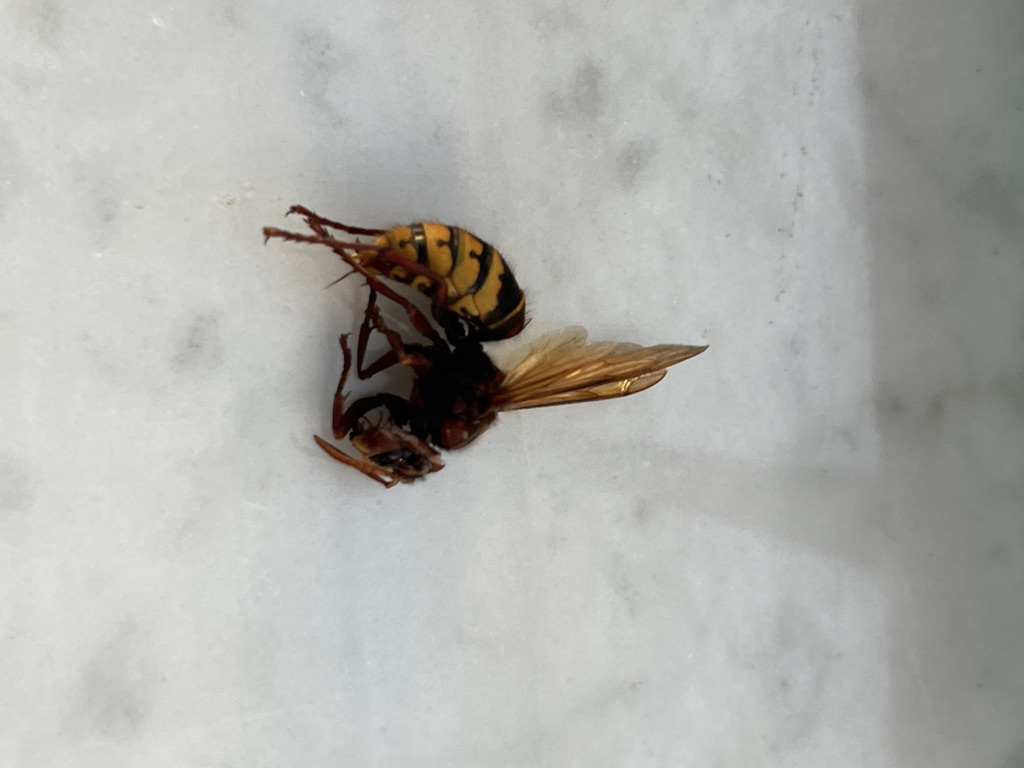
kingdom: Animalia
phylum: Arthropoda
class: Insecta
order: Hymenoptera
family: Vespidae
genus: Vespa
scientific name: Vespa crabro
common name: Hornet
